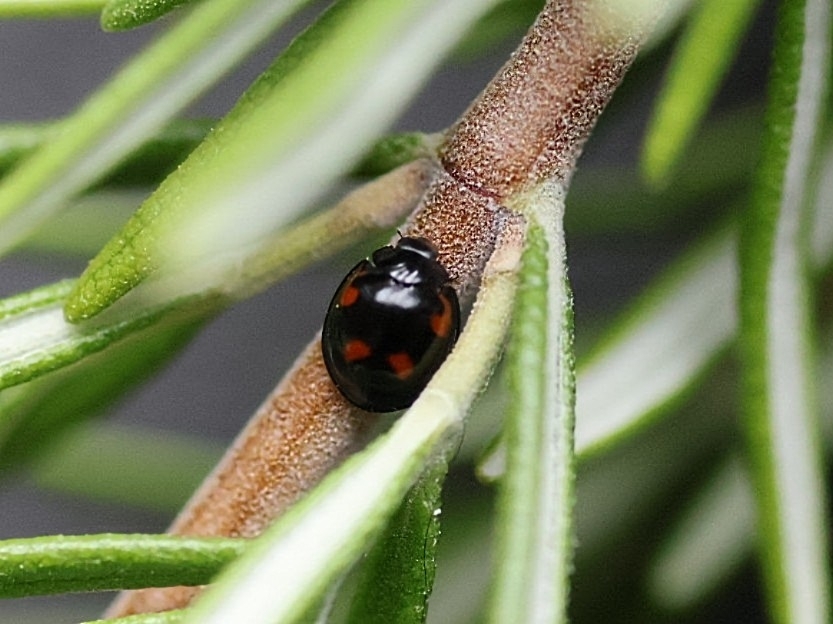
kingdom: Animalia
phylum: Arthropoda
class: Insecta
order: Coleoptera
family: Coccinellidae
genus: Brumus
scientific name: Brumus quadripustulatus
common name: Ladybird beetle
